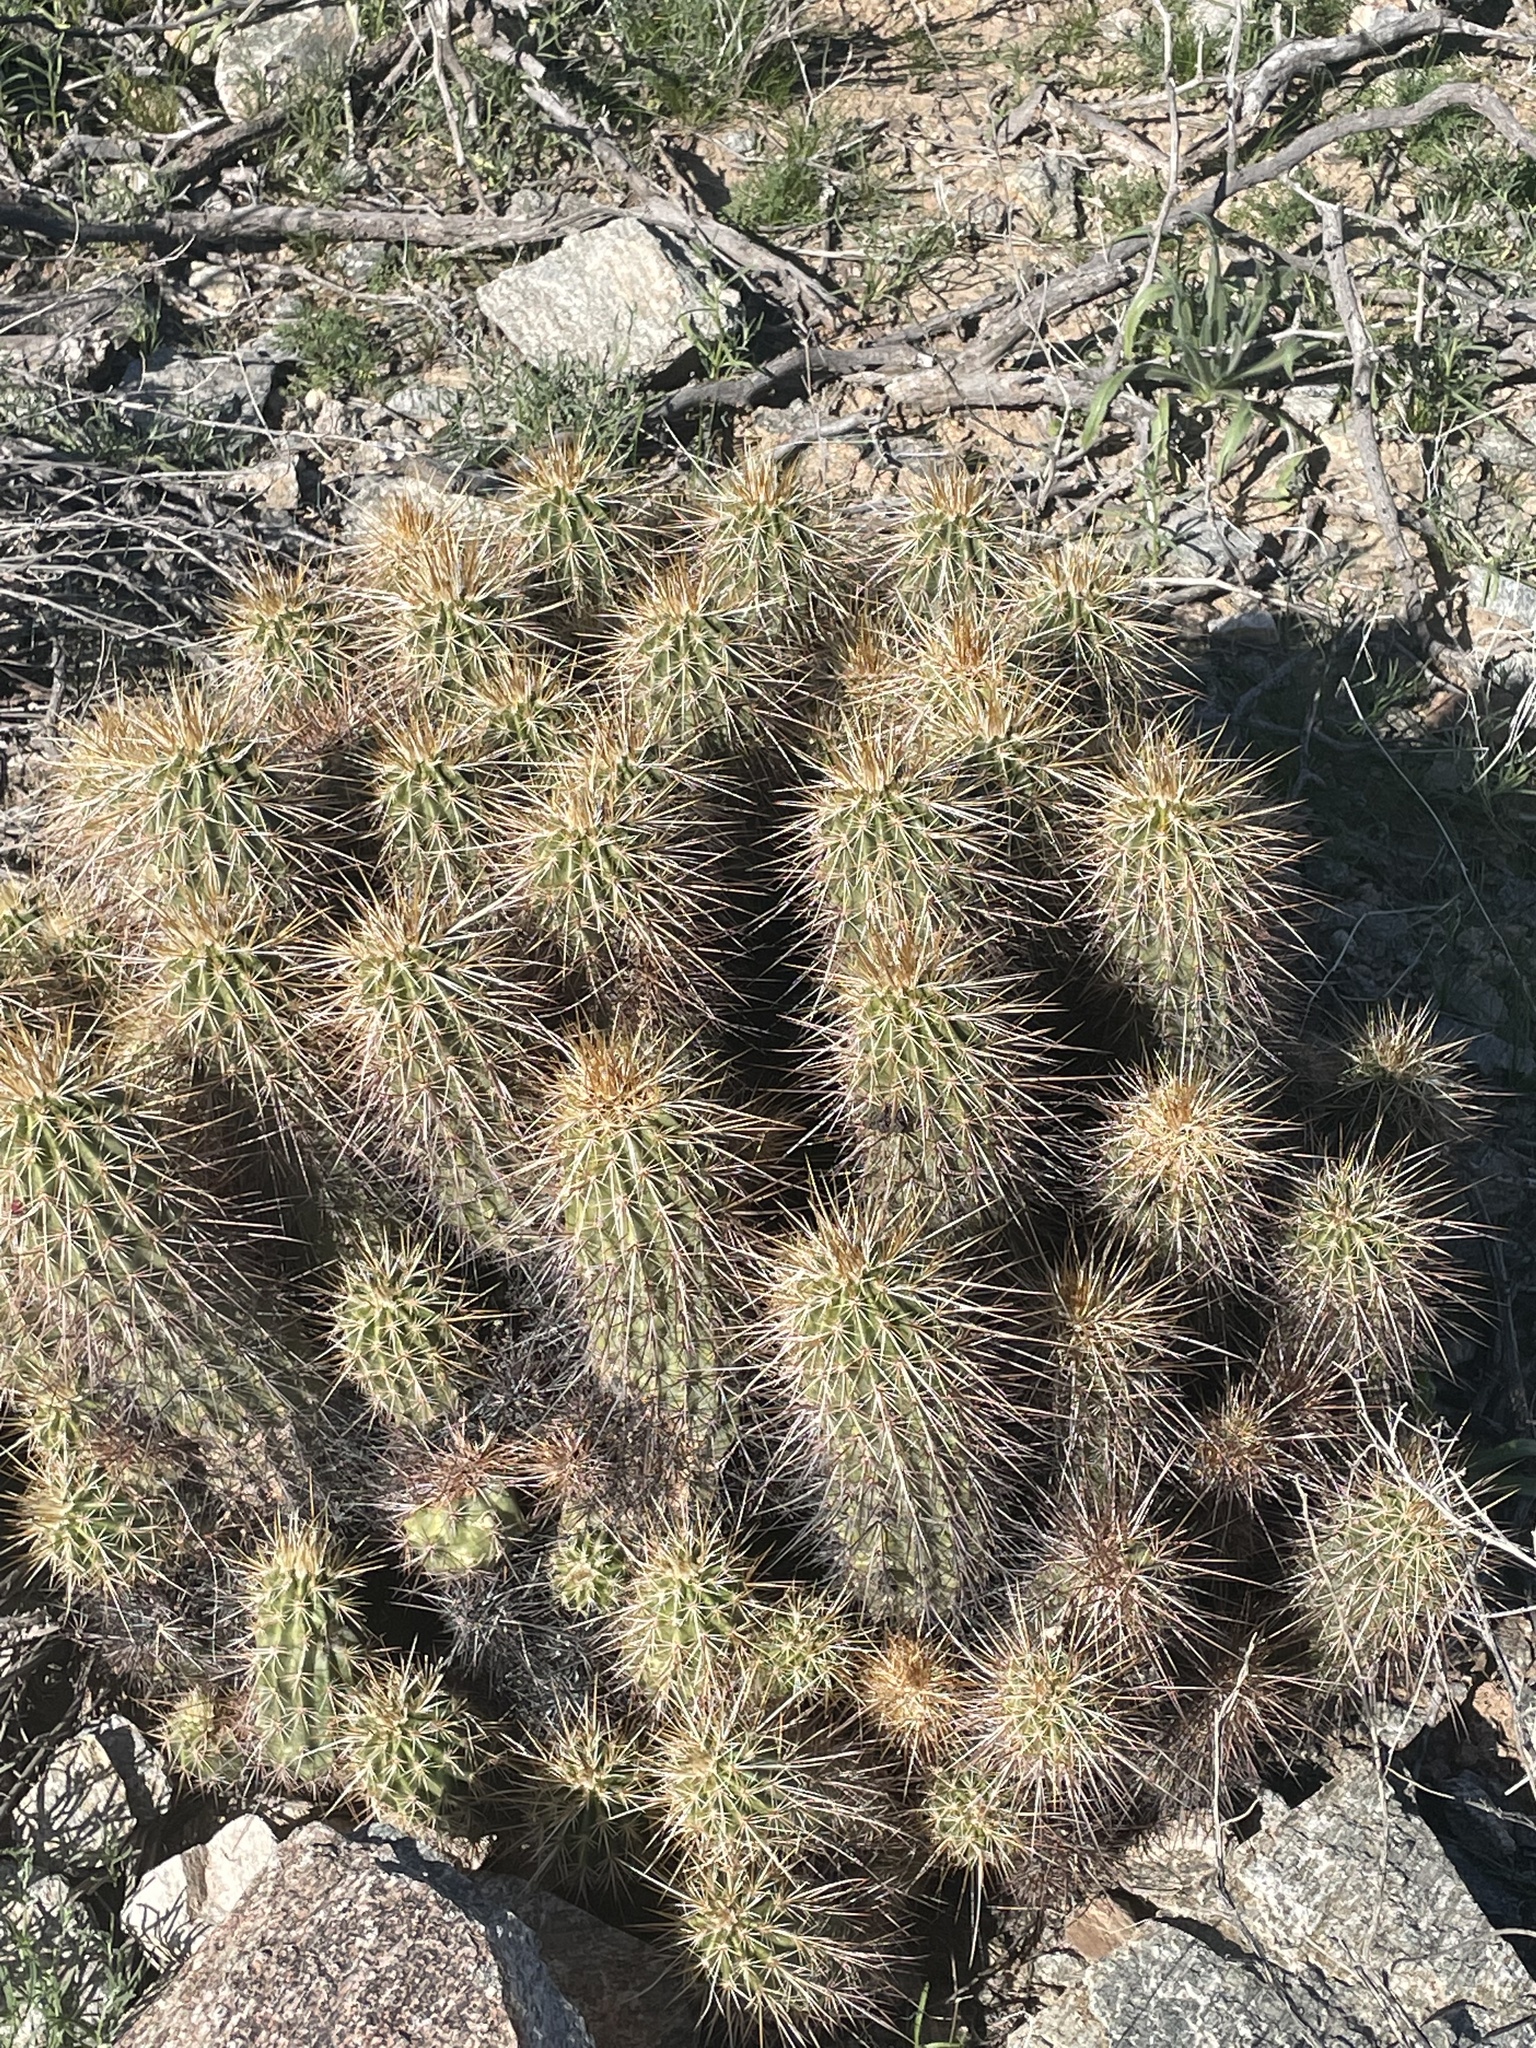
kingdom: Plantae
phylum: Tracheophyta
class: Magnoliopsida
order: Caryophyllales
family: Cactaceae
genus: Echinocereus
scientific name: Echinocereus engelmannii
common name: Engelmann's hedgehog cactus
